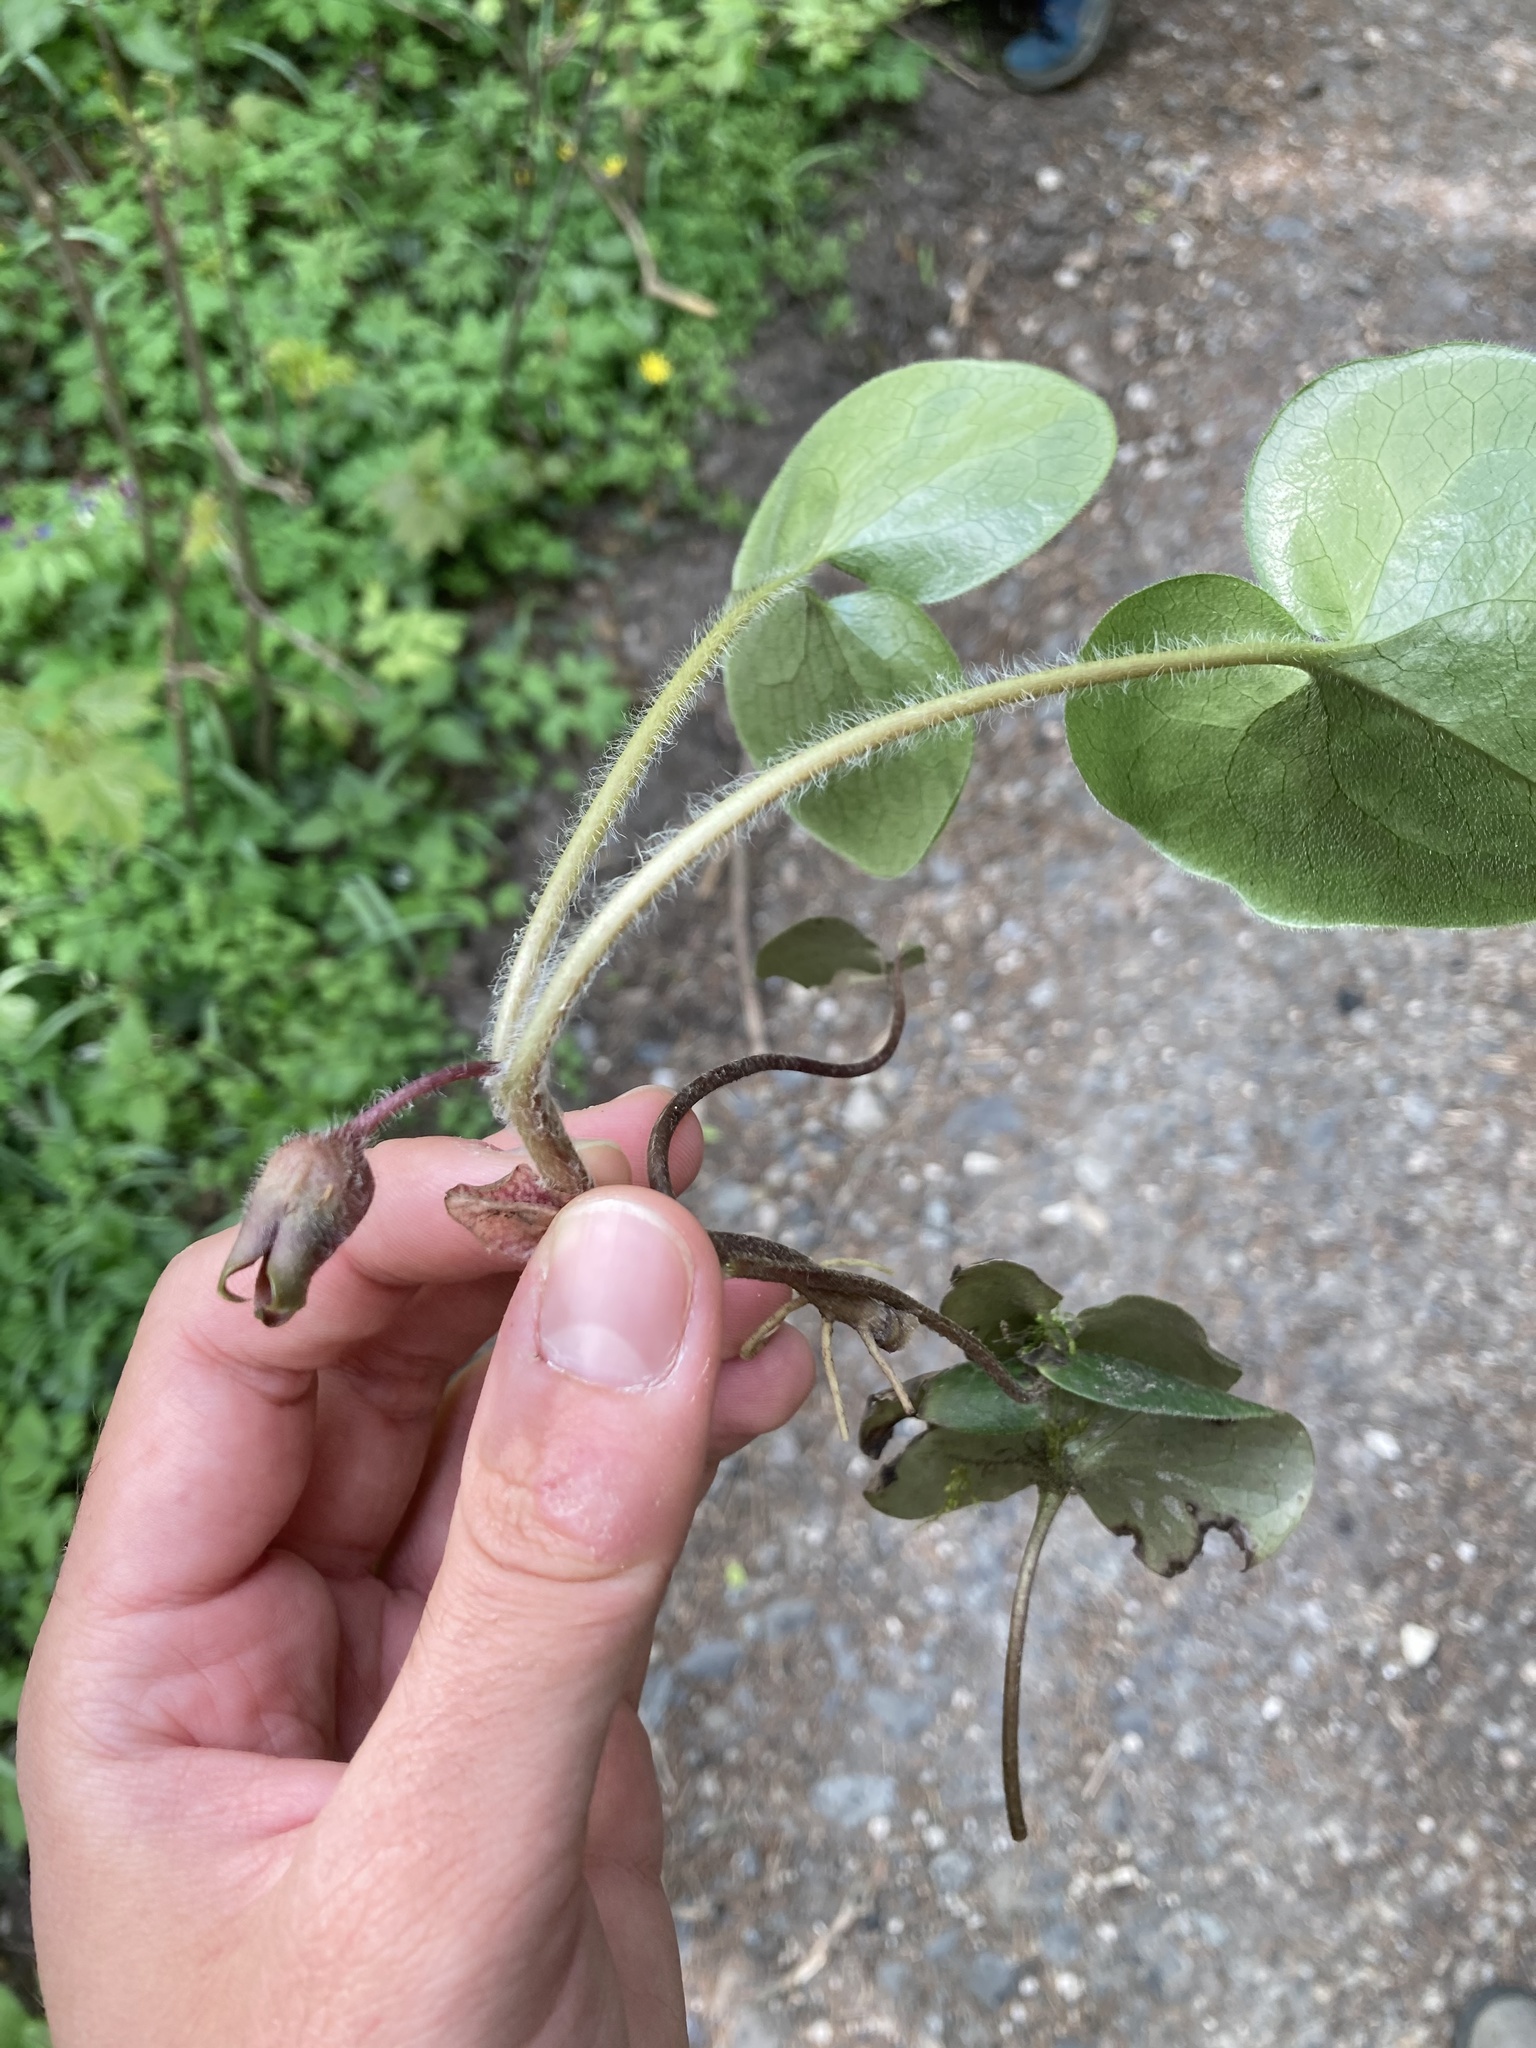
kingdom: Plantae
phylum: Tracheophyta
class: Magnoliopsida
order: Piperales
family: Aristolochiaceae
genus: Asarum
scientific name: Asarum europaeum
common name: Asarabacca
